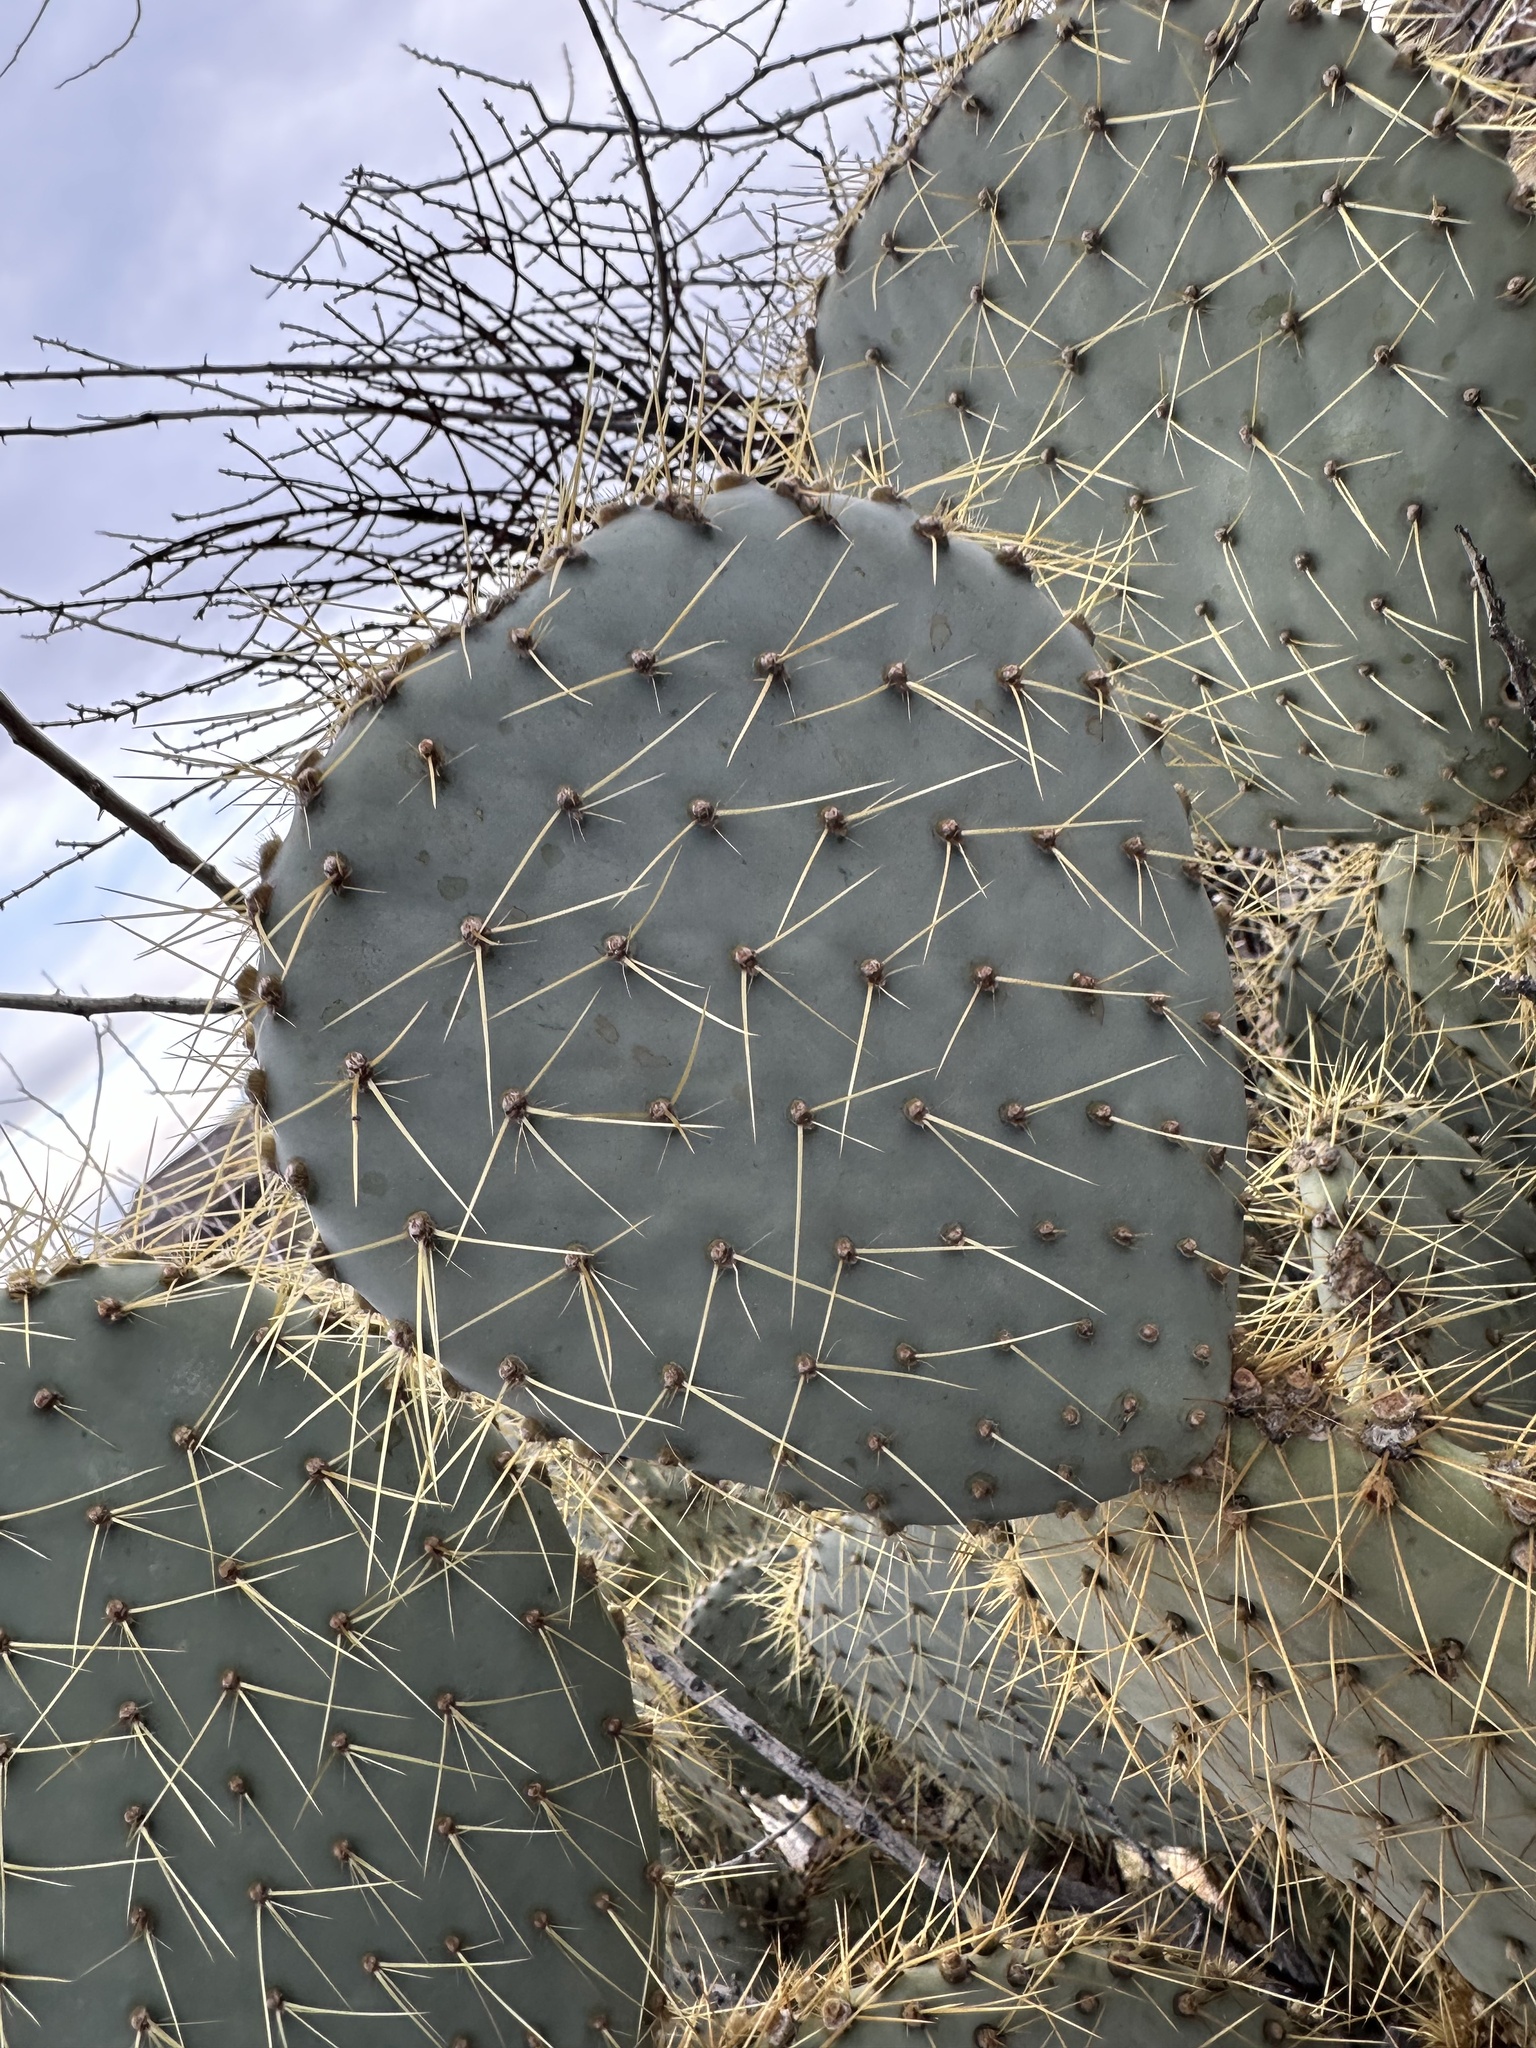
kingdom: Plantae
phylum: Tracheophyta
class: Magnoliopsida
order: Caryophyllales
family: Cactaceae
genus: Opuntia
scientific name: Opuntia chlorotica
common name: Dollar-joint prickly-pear
